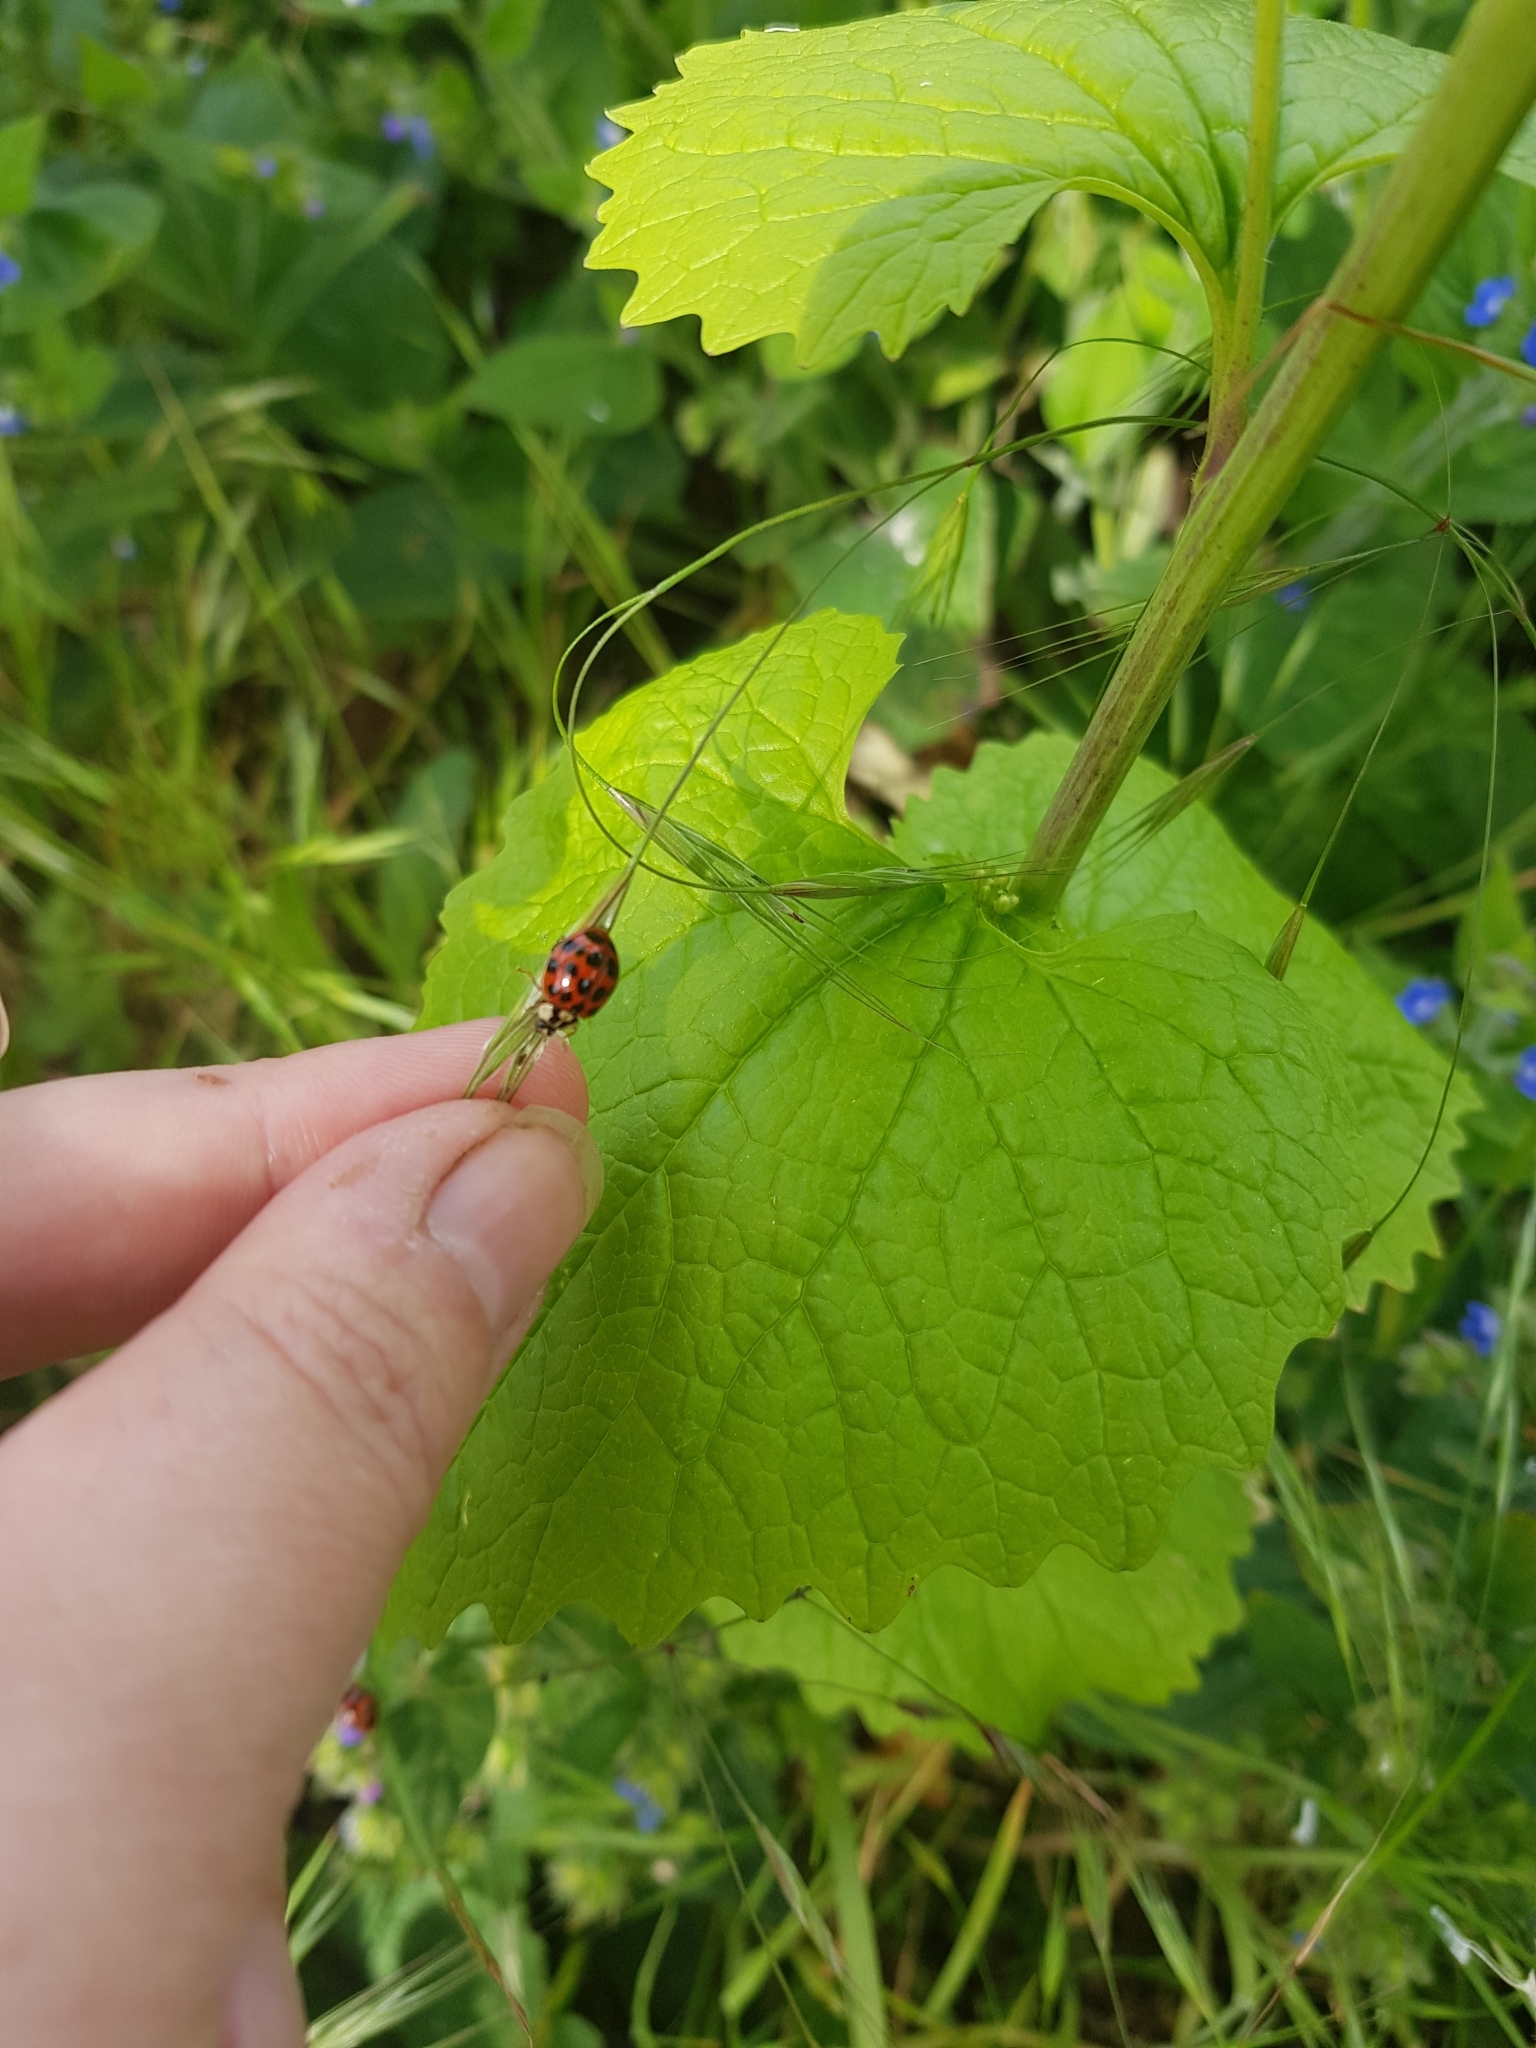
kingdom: Animalia
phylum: Arthropoda
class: Insecta
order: Coleoptera
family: Coccinellidae
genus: Harmonia
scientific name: Harmonia axyridis
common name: Harlequin ladybird
